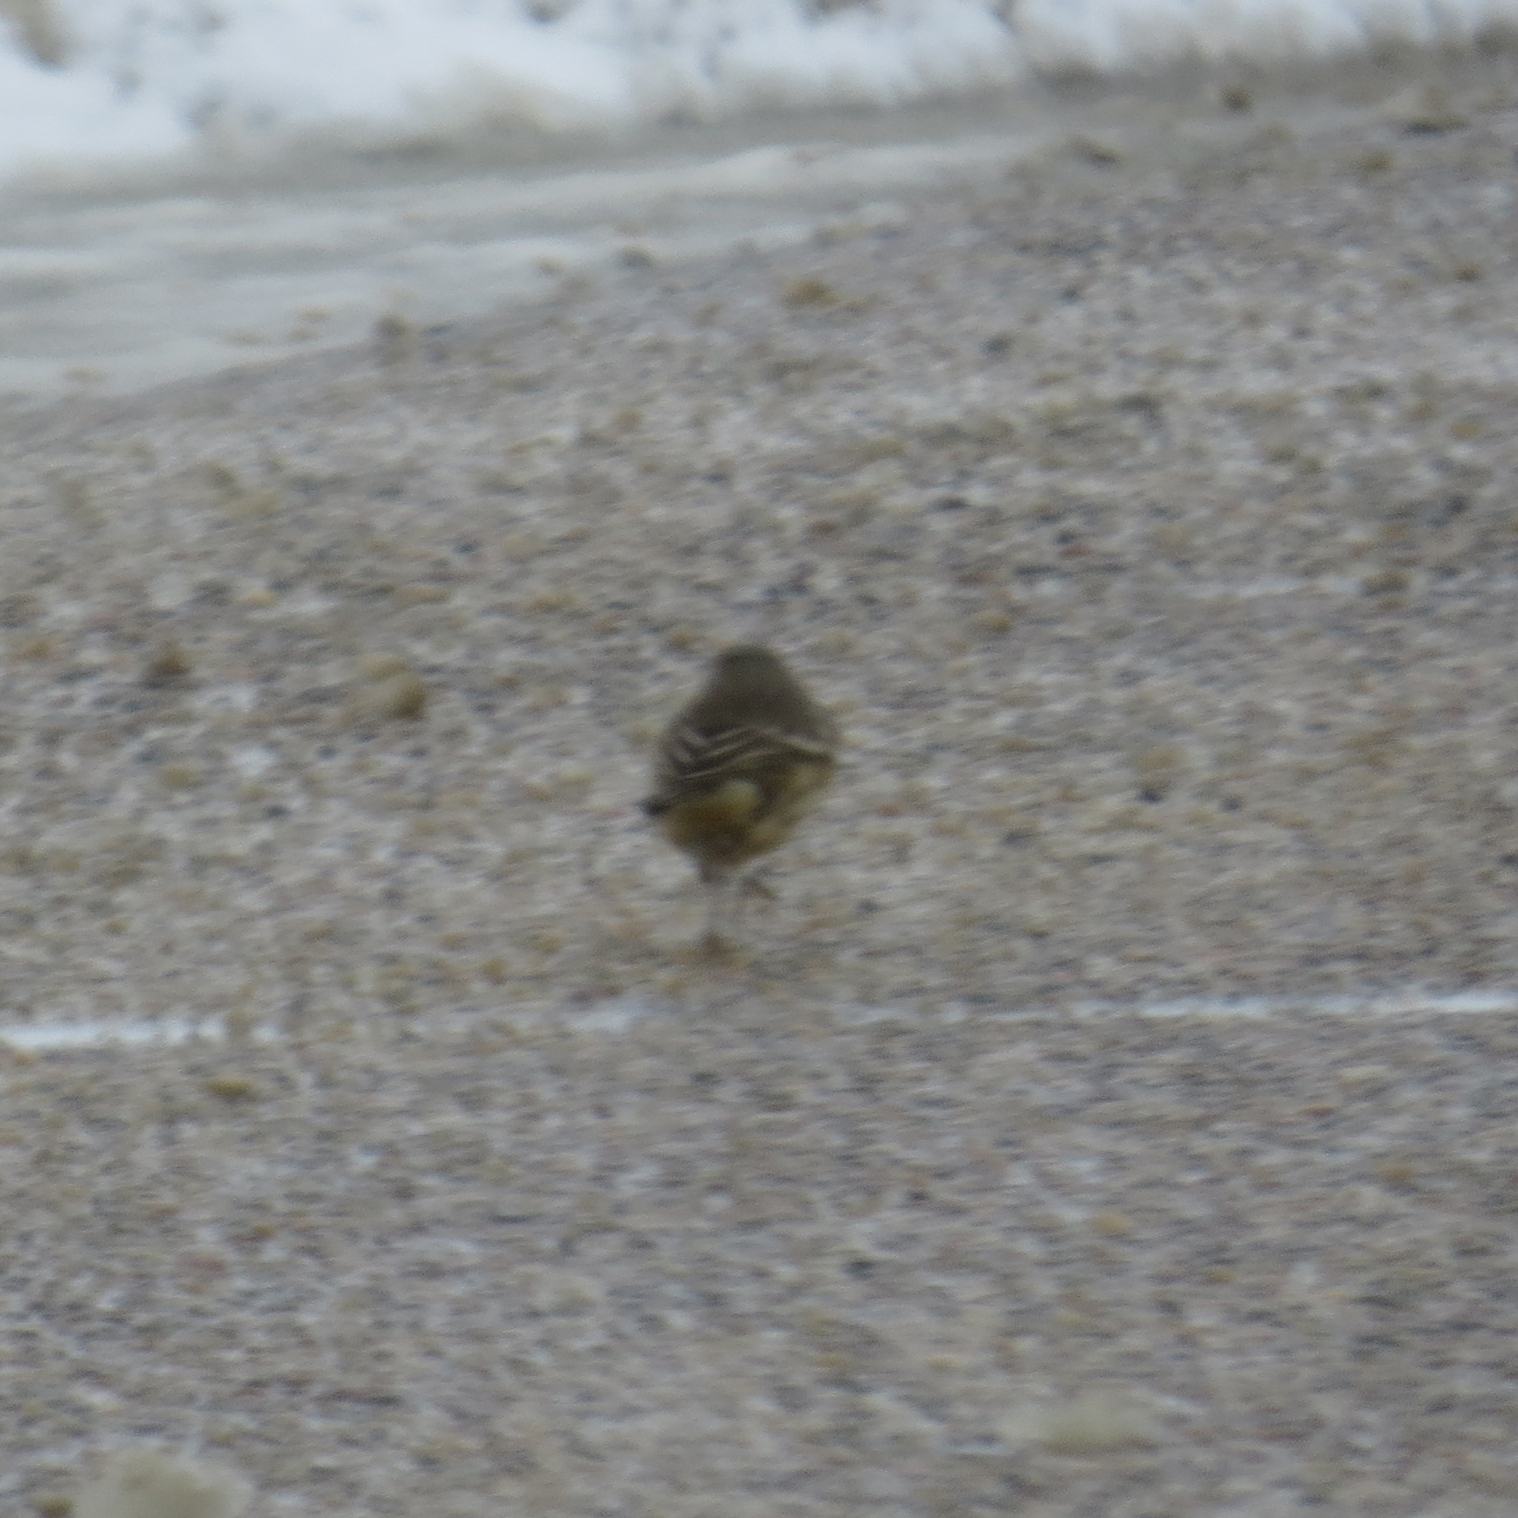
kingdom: Animalia
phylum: Chordata
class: Aves
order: Passeriformes
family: Motacillidae
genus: Anthus
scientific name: Anthus rubescens
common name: Buff-bellied pipit
